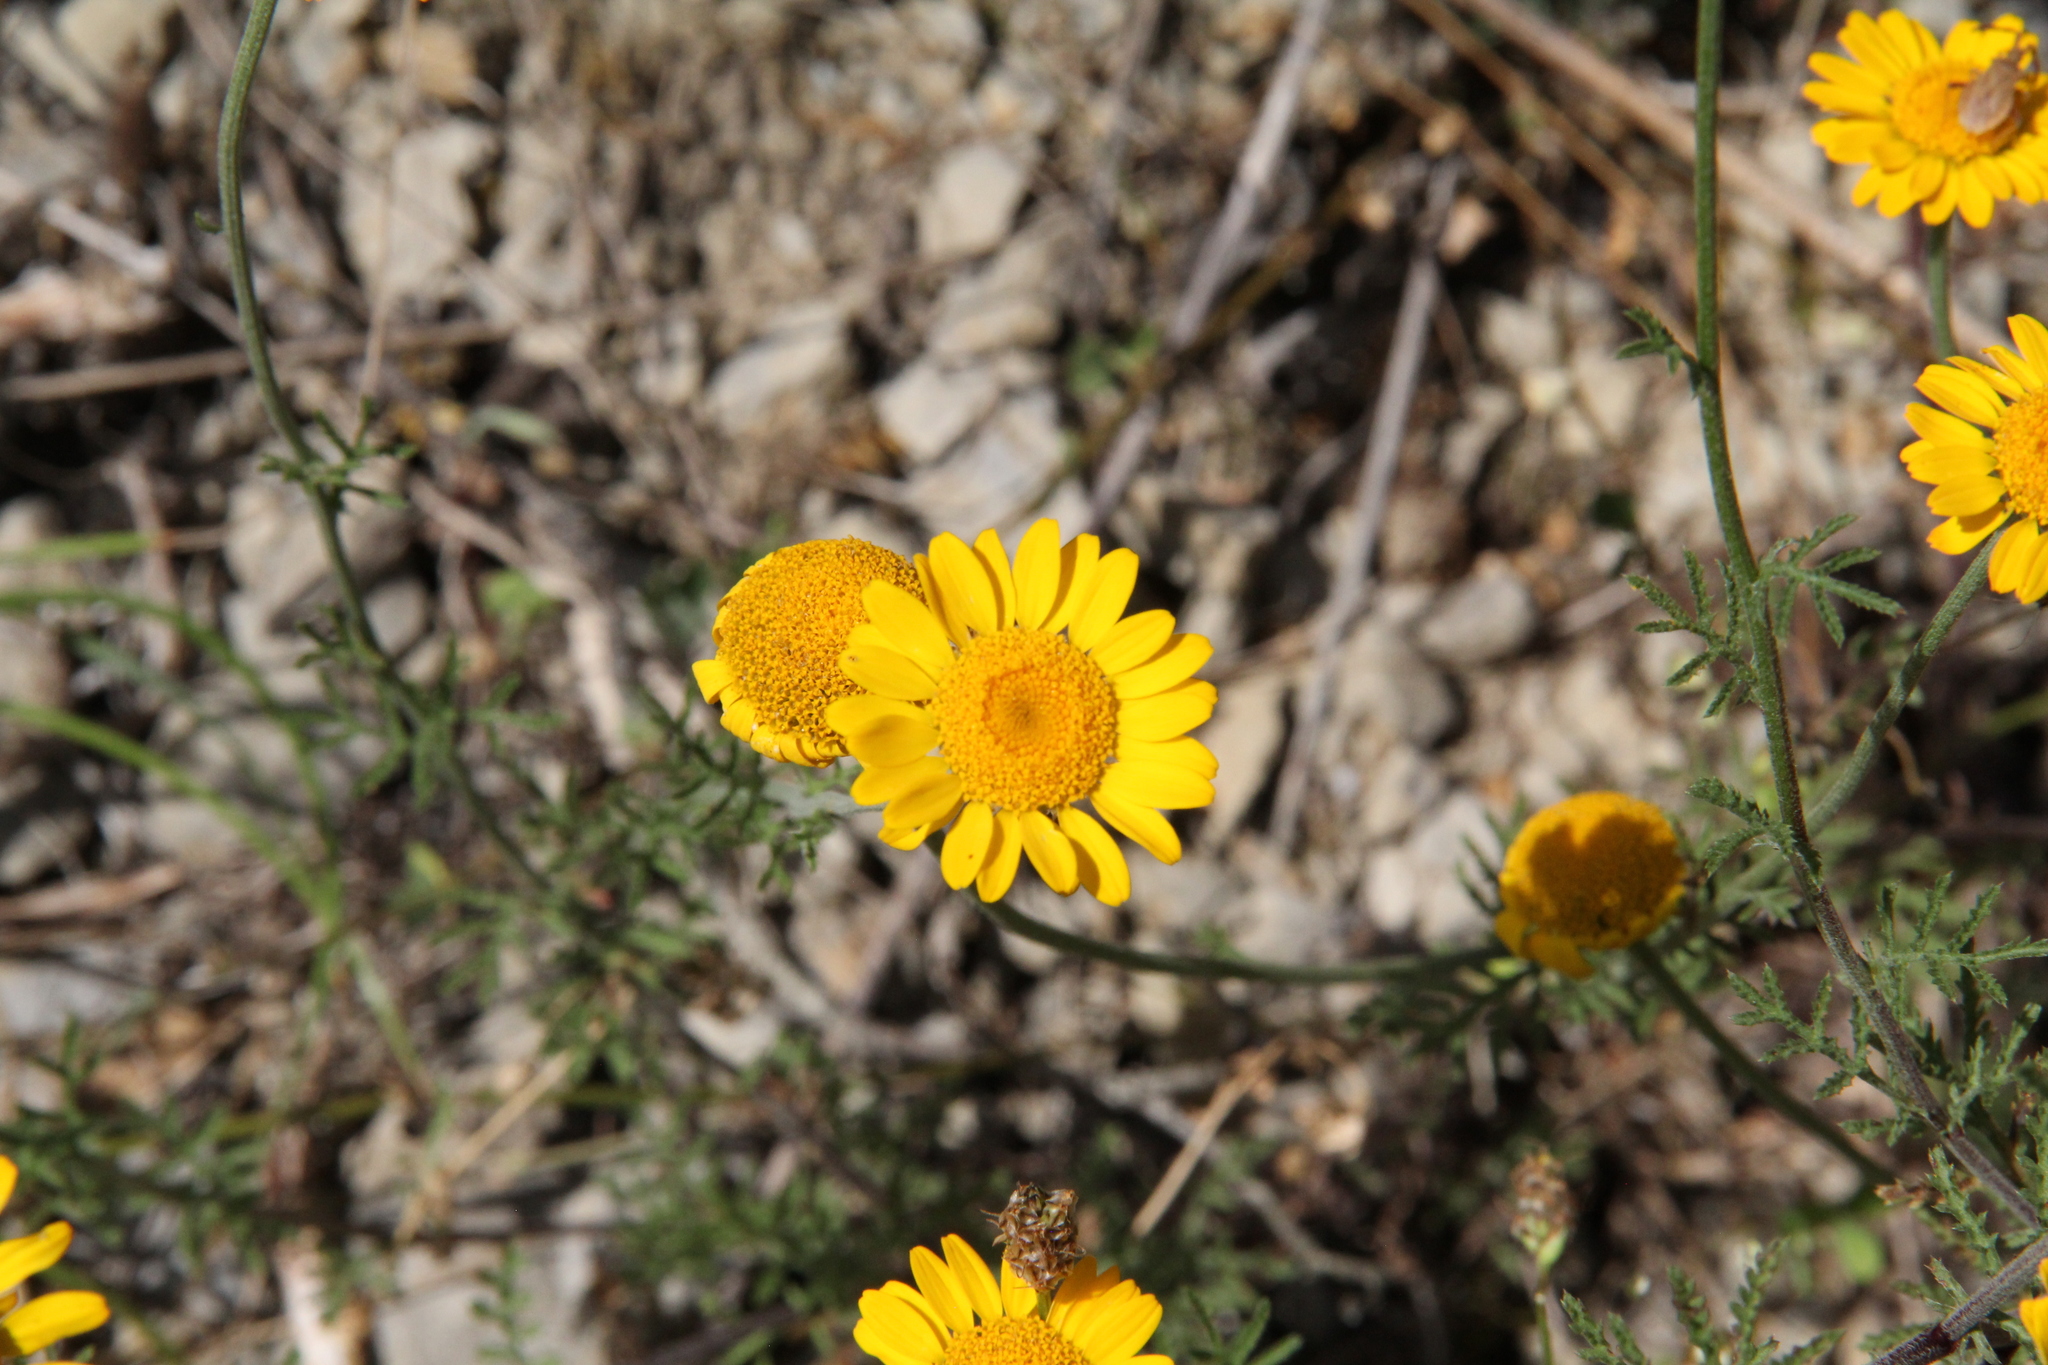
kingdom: Plantae
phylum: Tracheophyta
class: Magnoliopsida
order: Asterales
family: Asteraceae
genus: Cota
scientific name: Cota tinctoria
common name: Golden chamomile
